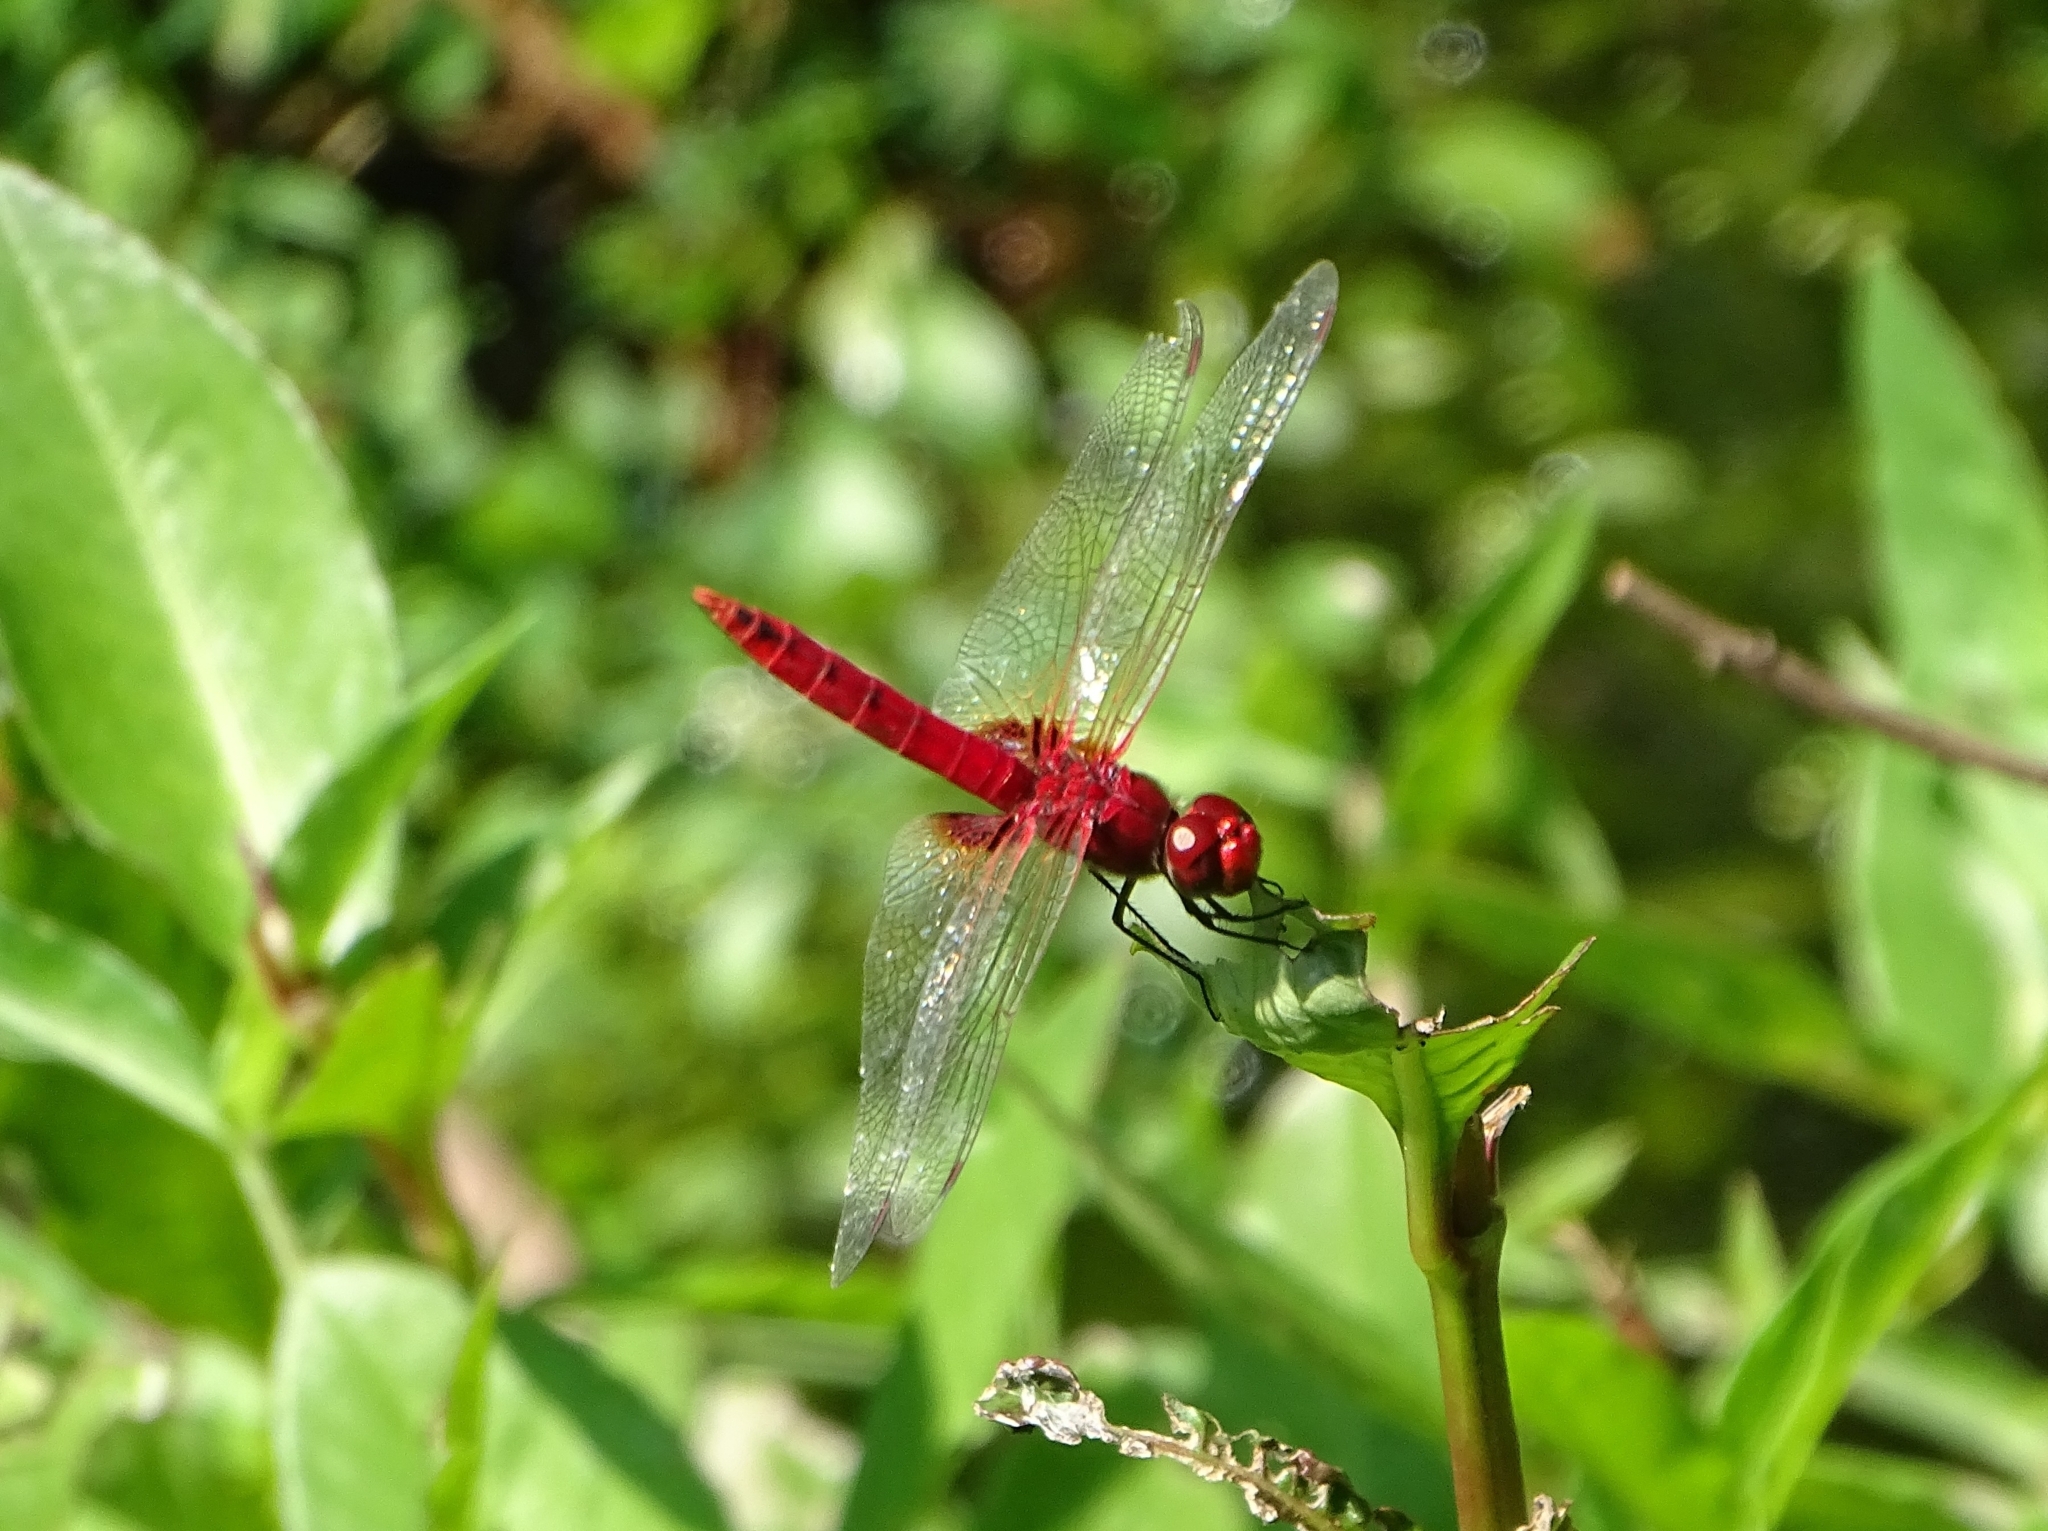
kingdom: Animalia
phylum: Arthropoda
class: Insecta
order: Odonata
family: Libellulidae
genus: Urothemis
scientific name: Urothemis signata
